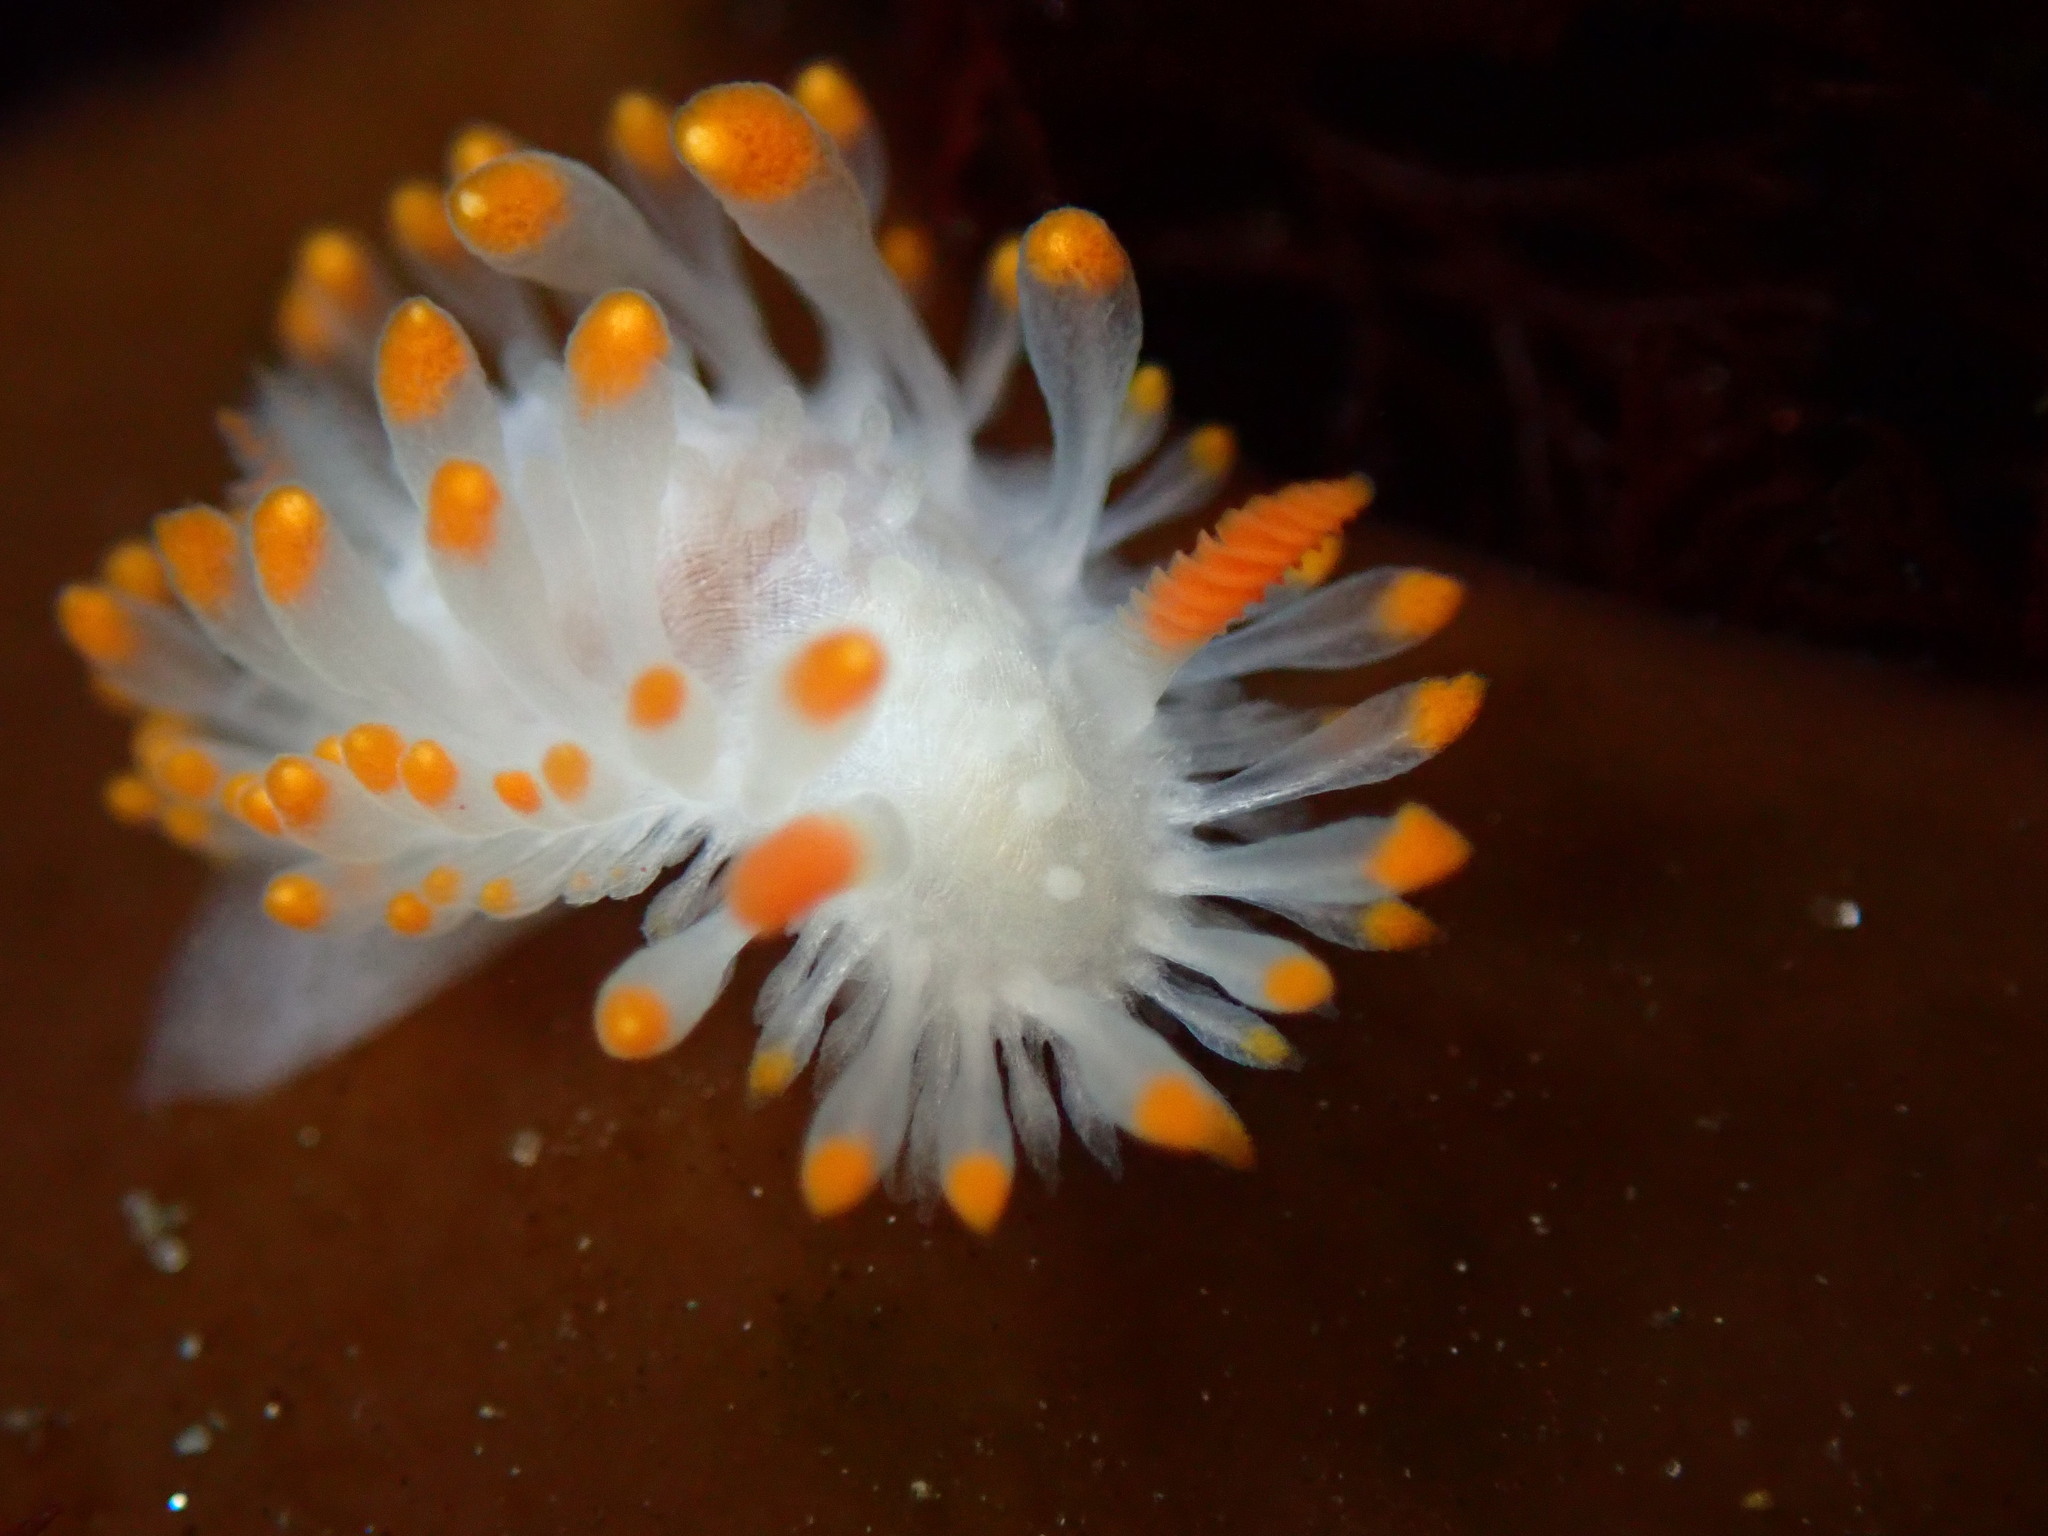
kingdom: Animalia
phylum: Mollusca
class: Gastropoda
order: Nudibranchia
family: Polyceridae
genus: Limacia
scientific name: Limacia cockerelli
